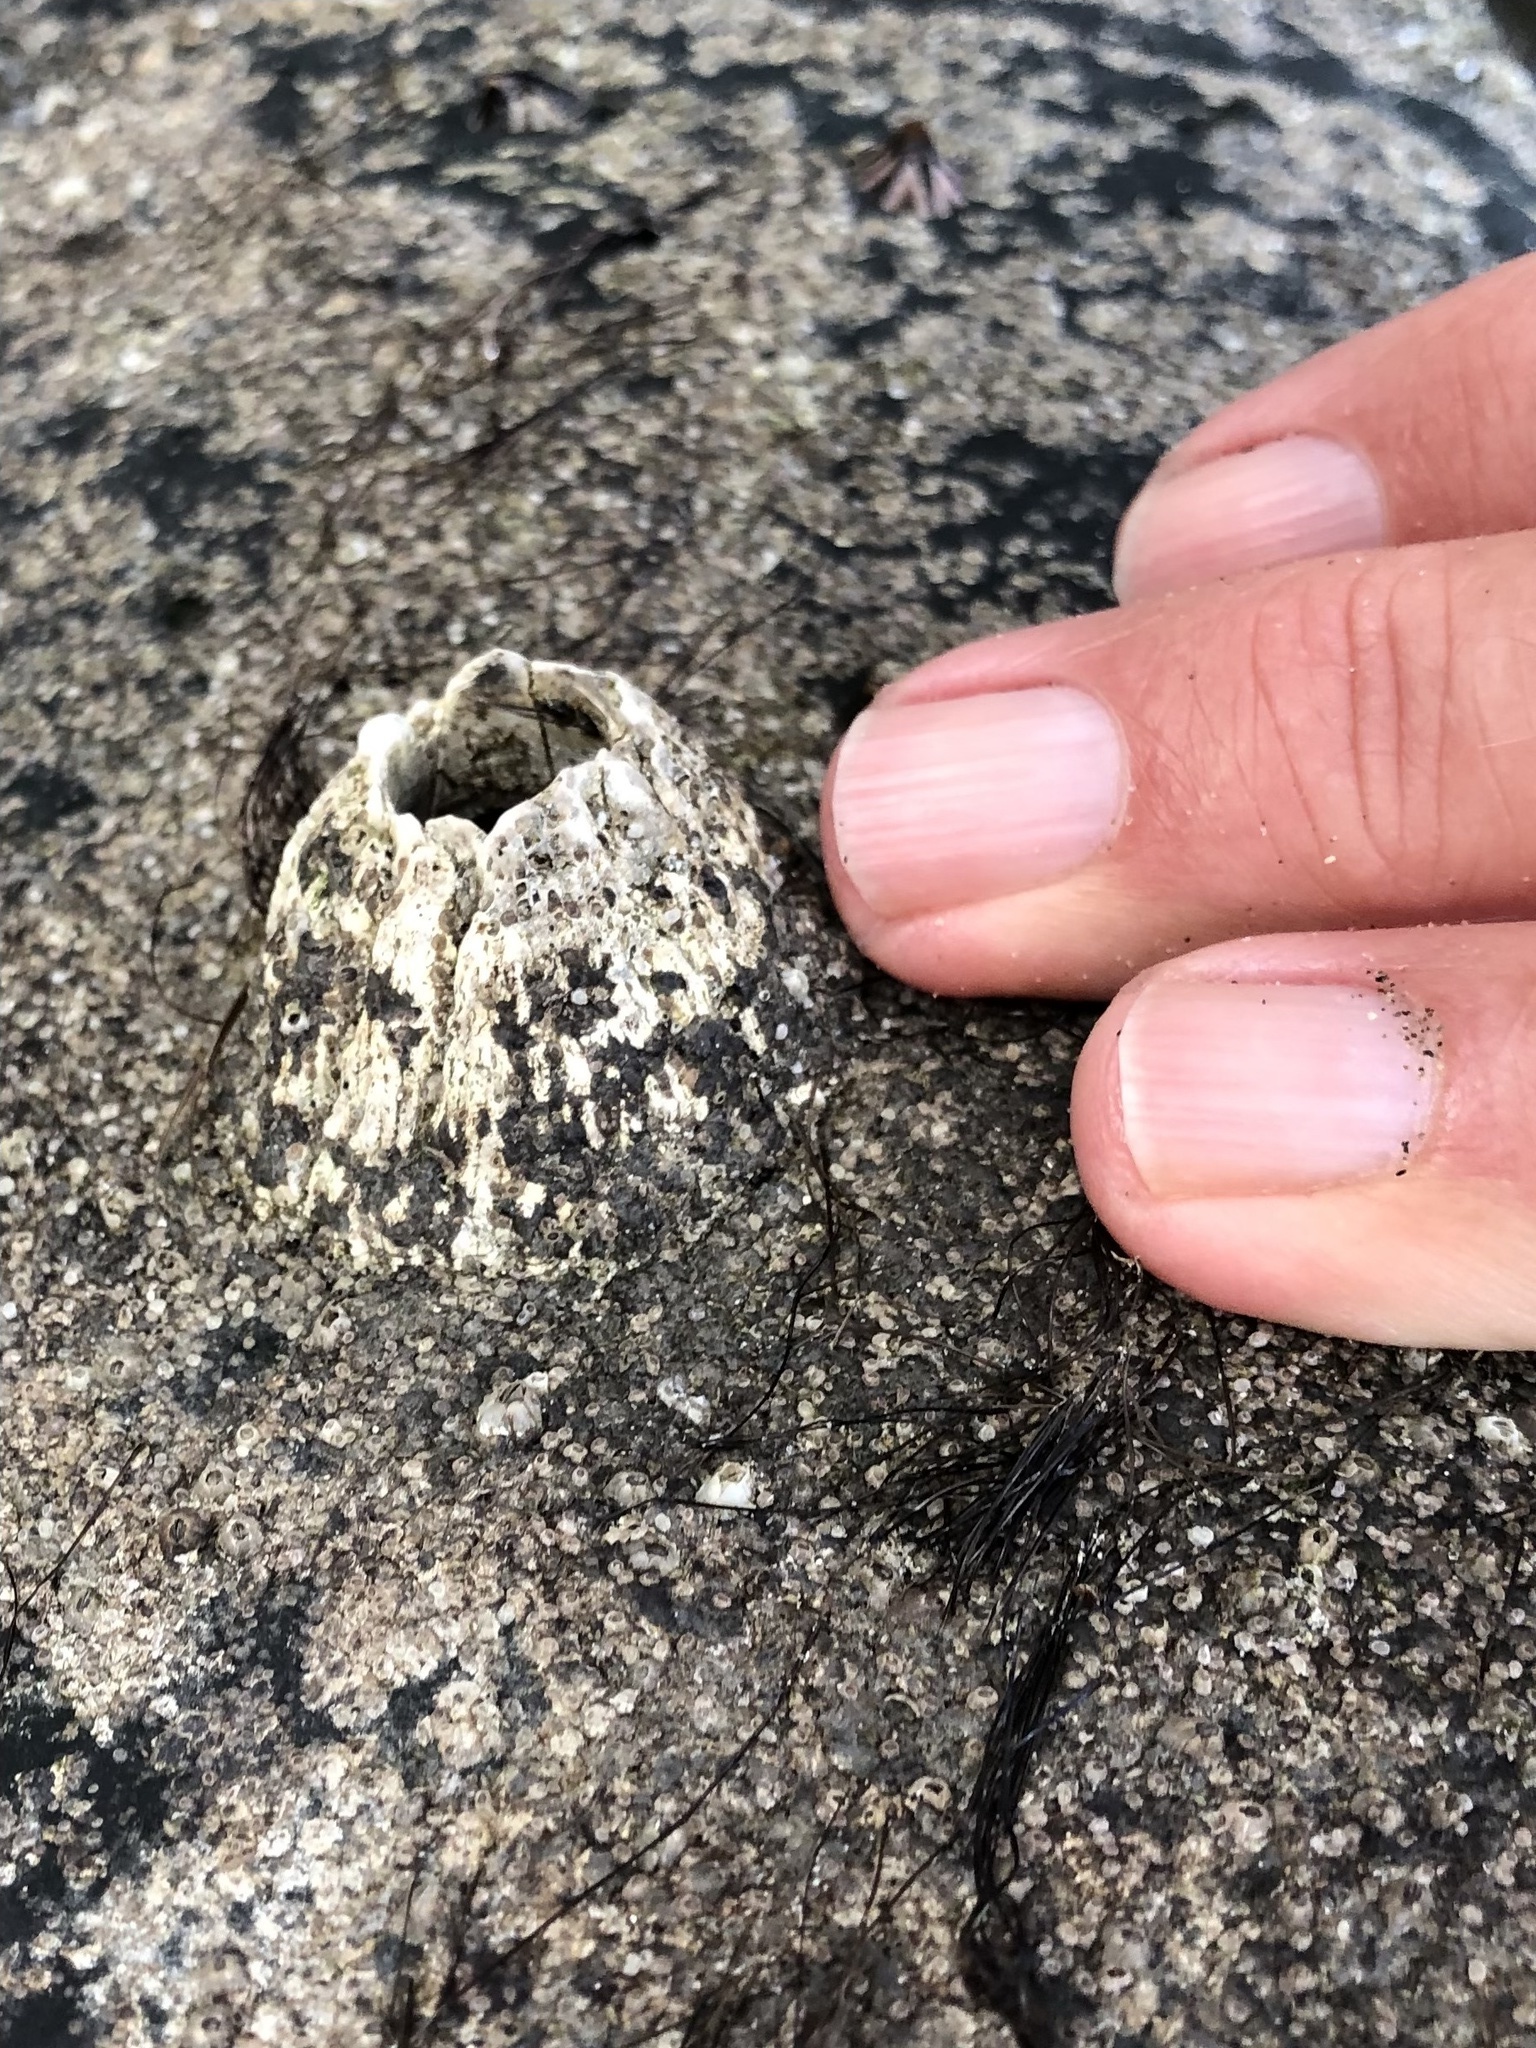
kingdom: Animalia
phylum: Arthropoda
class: Maxillopoda
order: Sessilia
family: Archaeobalanidae
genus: Semibalanus
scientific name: Semibalanus cariosus
